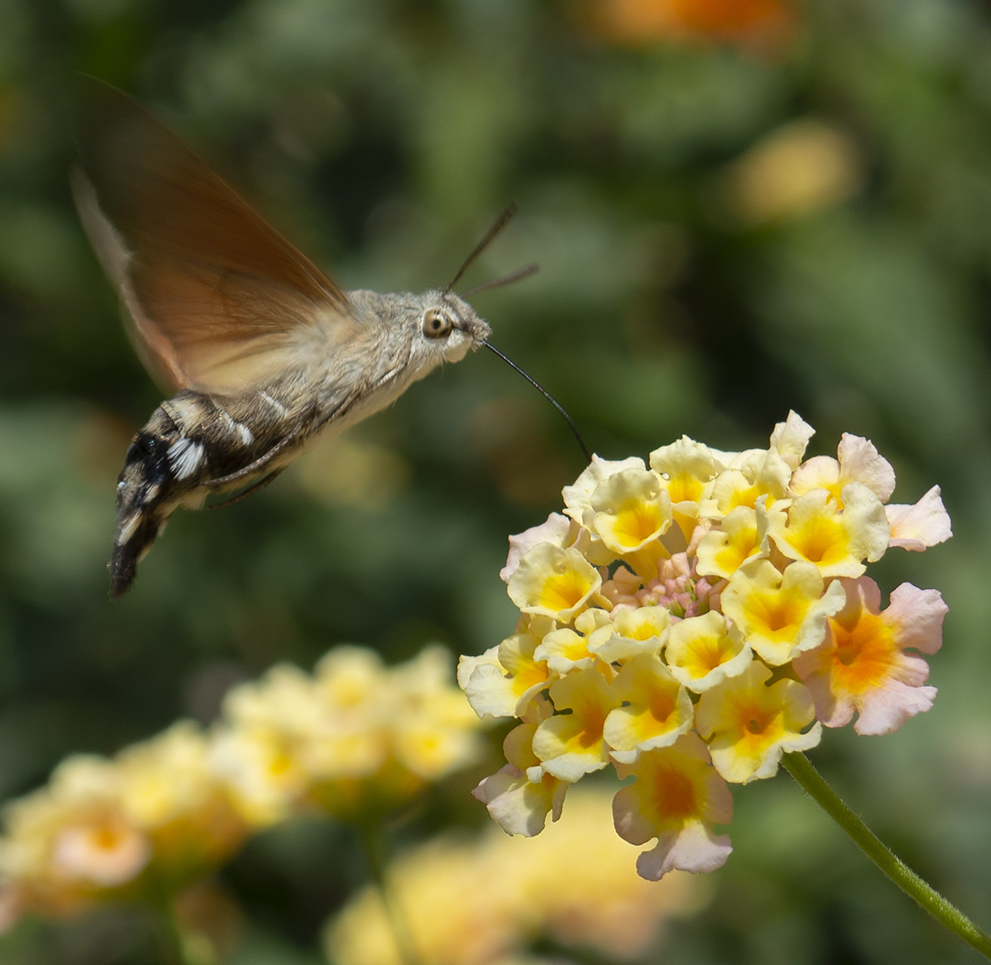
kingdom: Animalia
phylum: Arthropoda
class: Insecta
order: Lepidoptera
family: Sphingidae
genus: Macroglossum
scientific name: Macroglossum stellatarum
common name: Humming-bird hawk-moth
